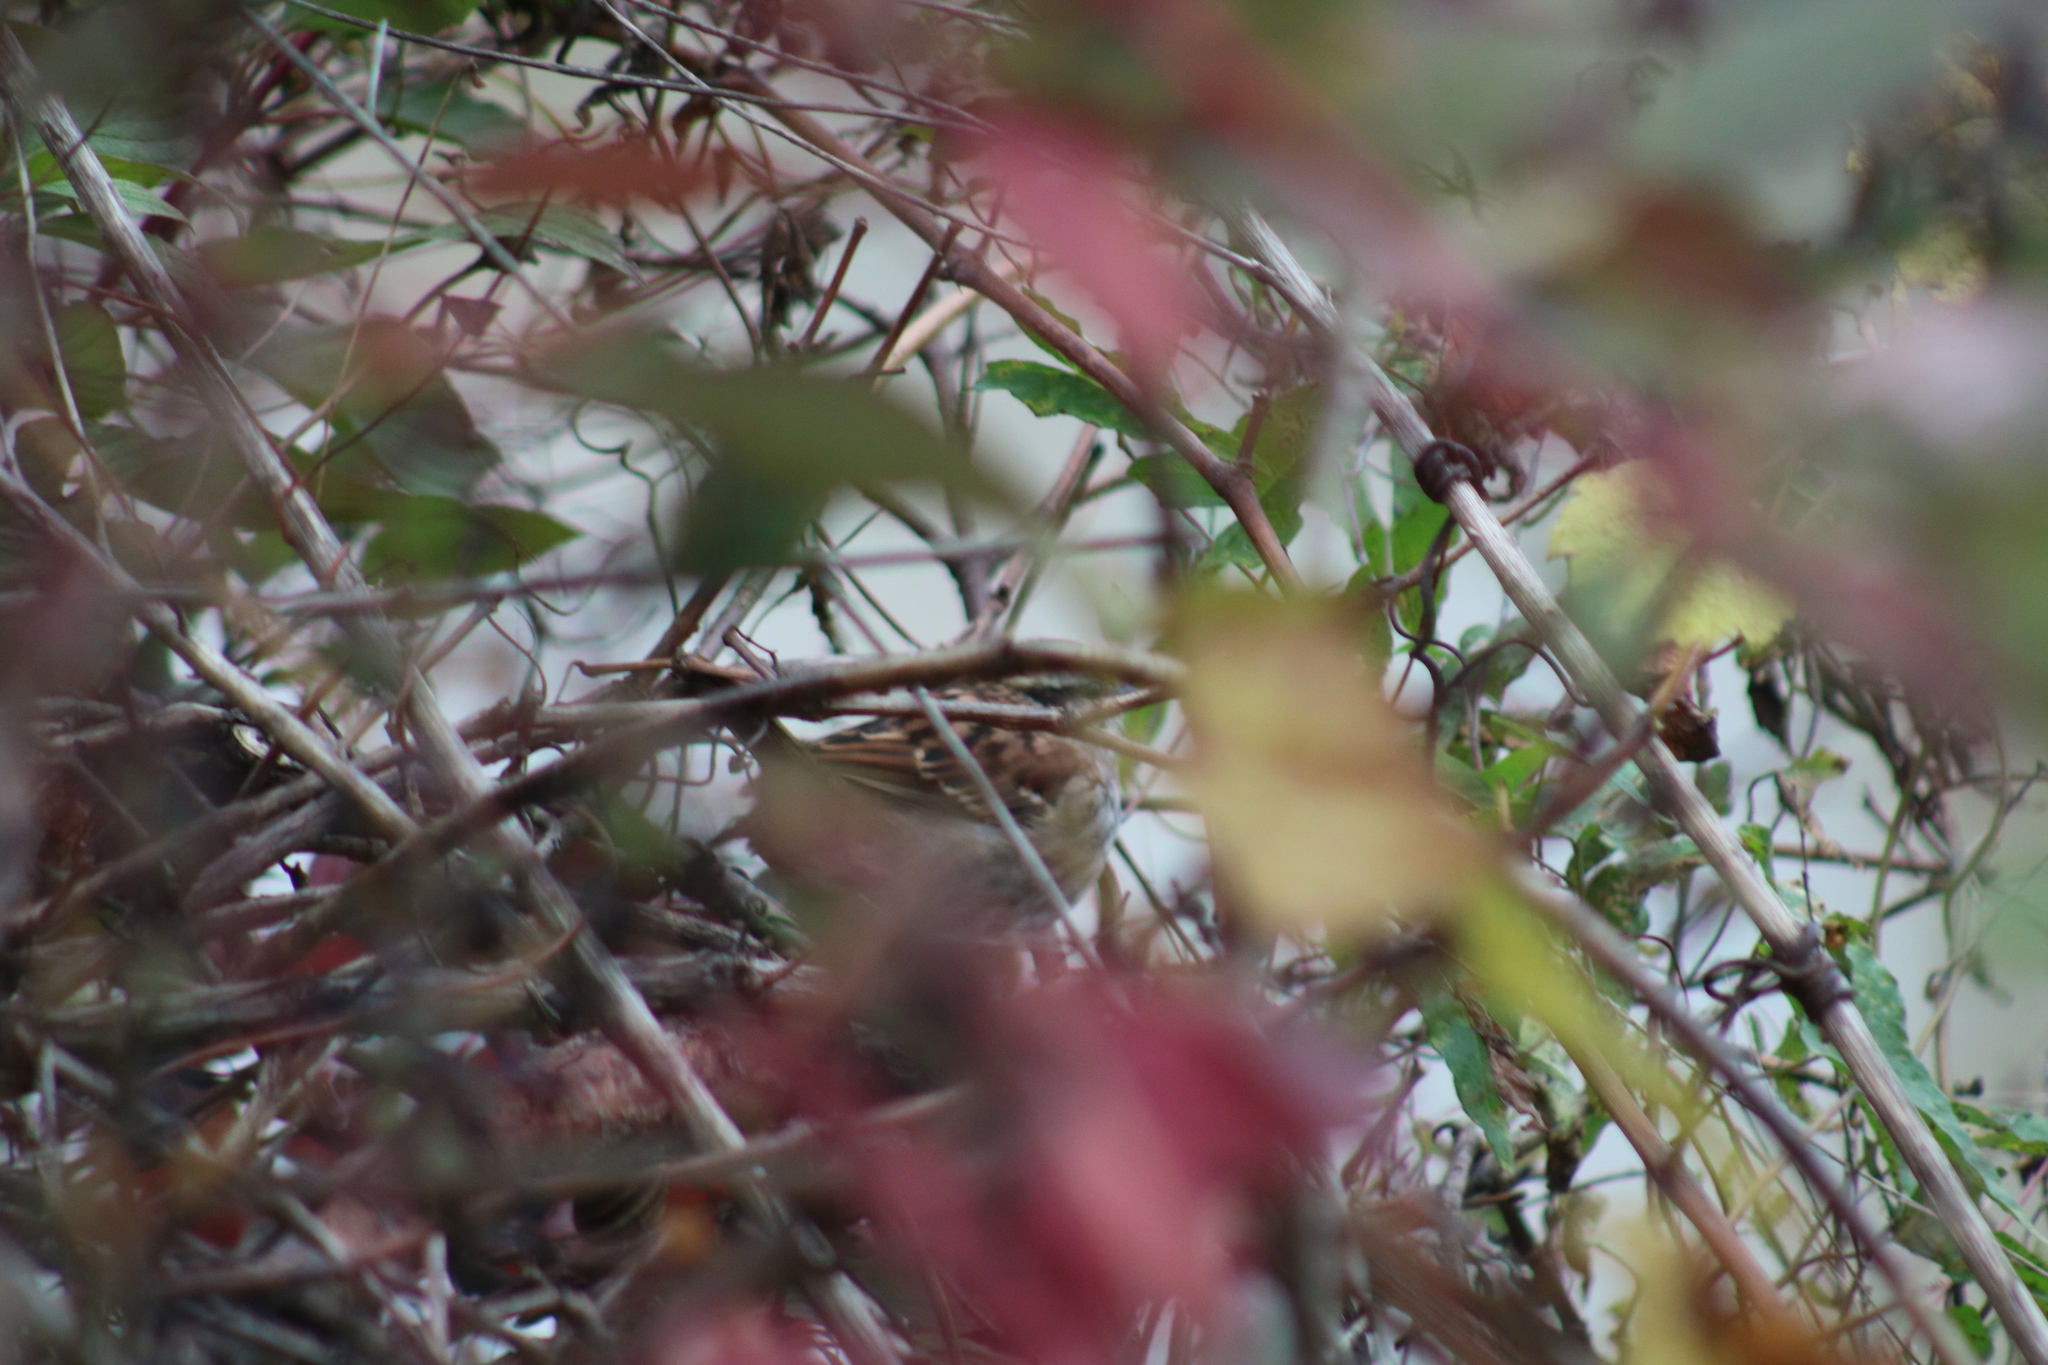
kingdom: Animalia
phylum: Chordata
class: Aves
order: Passeriformes
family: Passerellidae
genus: Zonotrichia
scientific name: Zonotrichia albicollis
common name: White-throated sparrow
